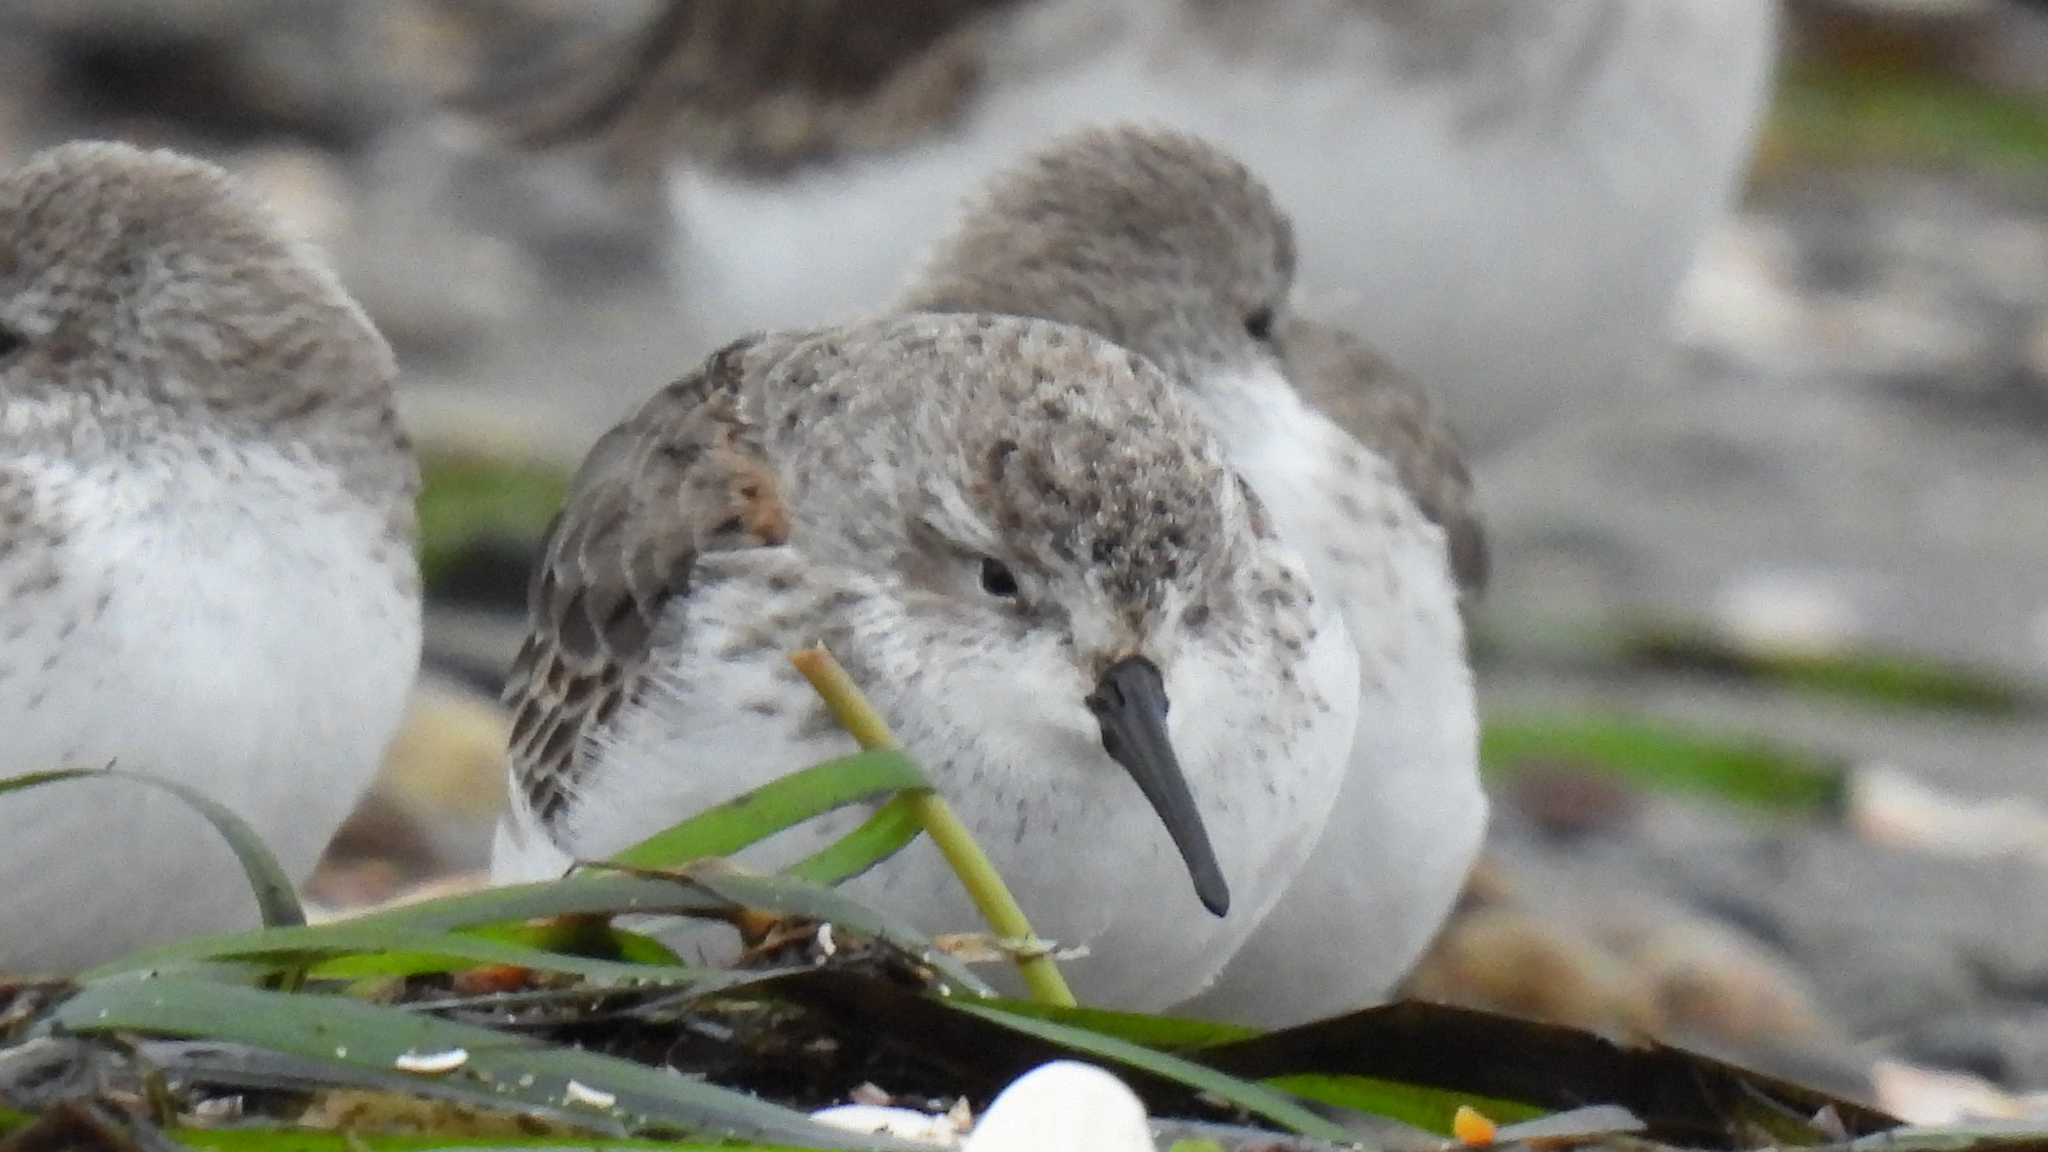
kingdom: Animalia
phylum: Chordata
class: Aves
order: Charadriiformes
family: Scolopacidae
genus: Calidris
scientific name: Calidris mauri
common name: Western sandpiper
